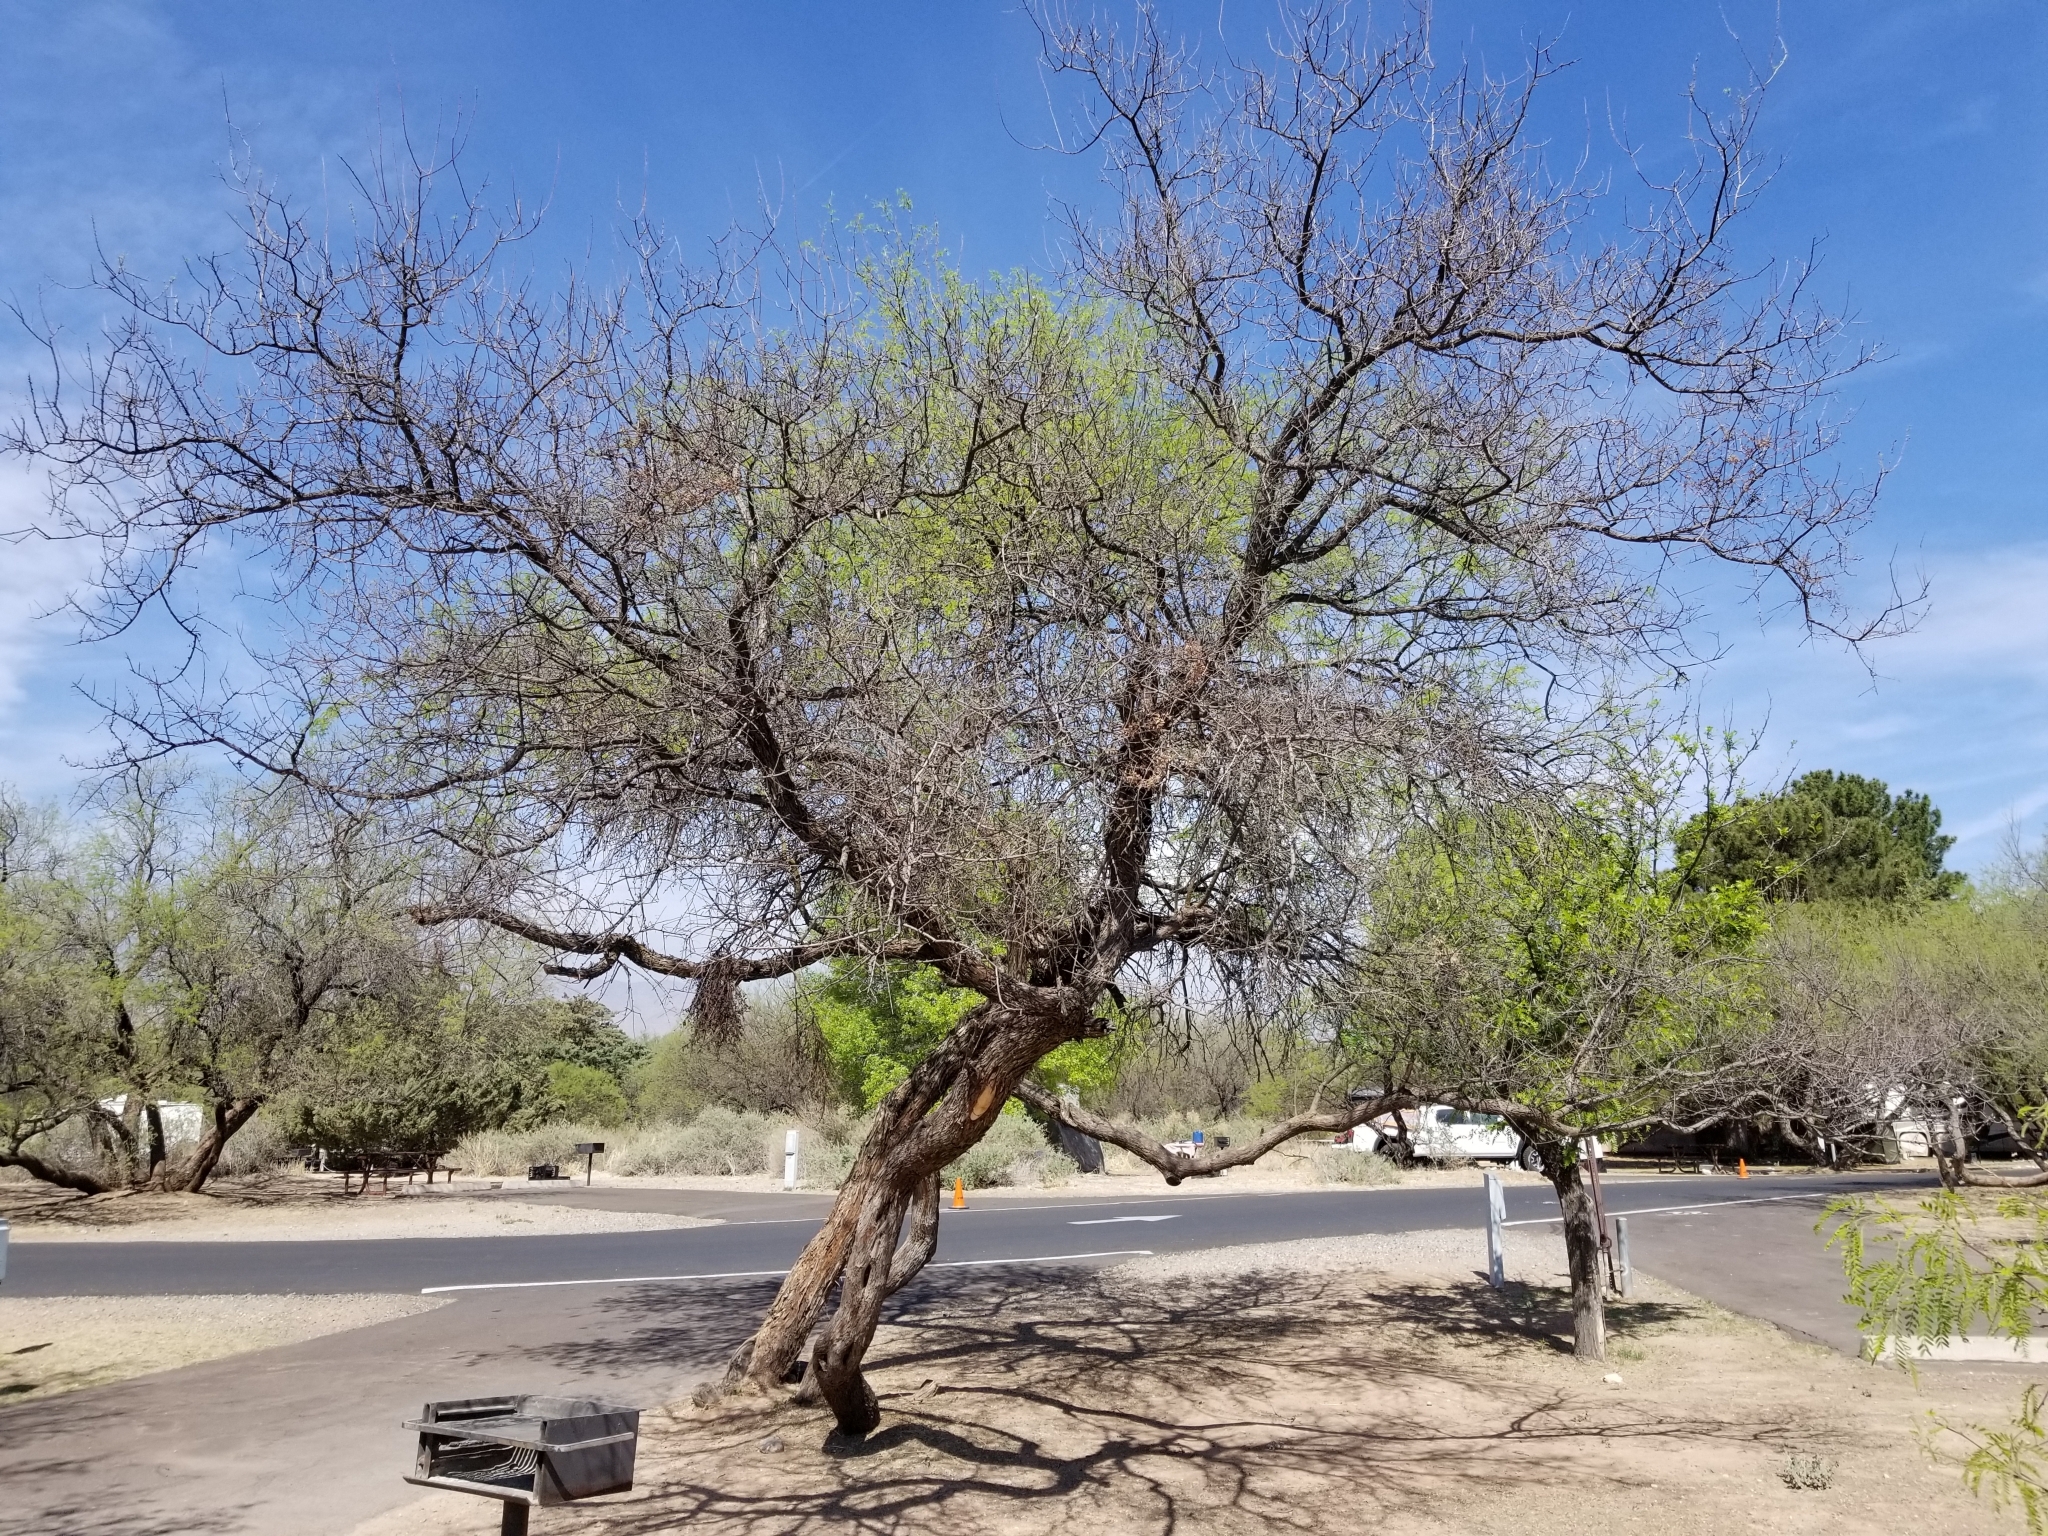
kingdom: Plantae
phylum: Tracheophyta
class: Magnoliopsida
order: Fabales
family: Fabaceae
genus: Prosopis
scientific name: Prosopis velutina
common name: Velvet mesquite
